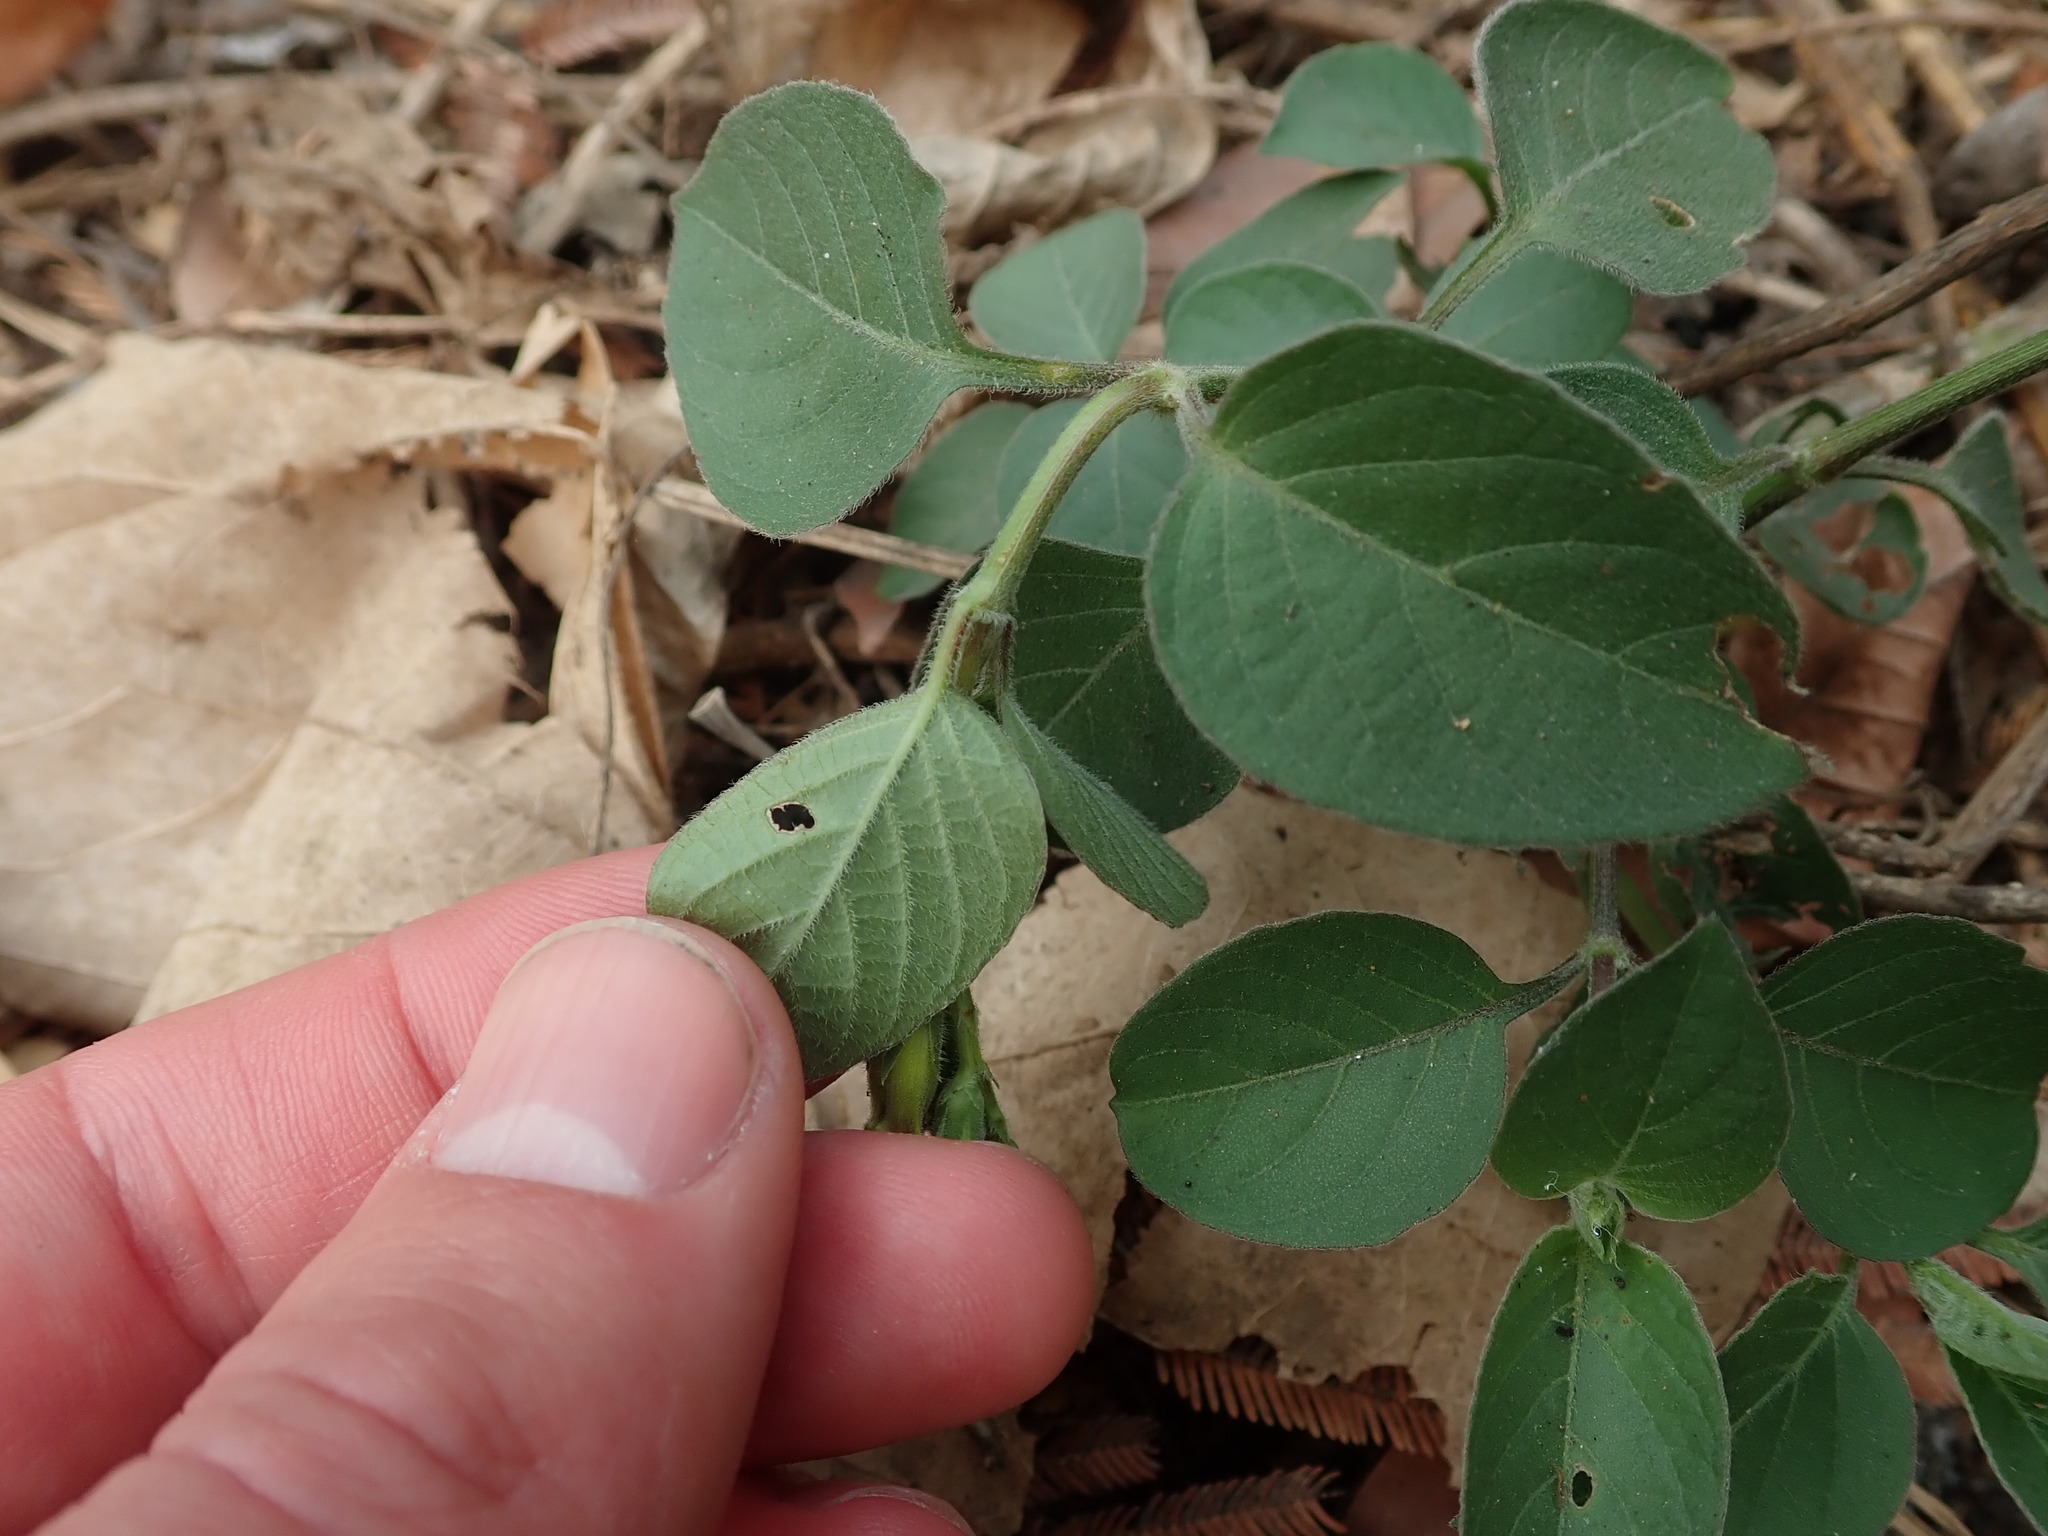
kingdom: Plantae
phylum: Tracheophyta
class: Magnoliopsida
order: Lamiales
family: Acanthaceae
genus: Asystasia
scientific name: Asystasia gangetica
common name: Chinese violet
